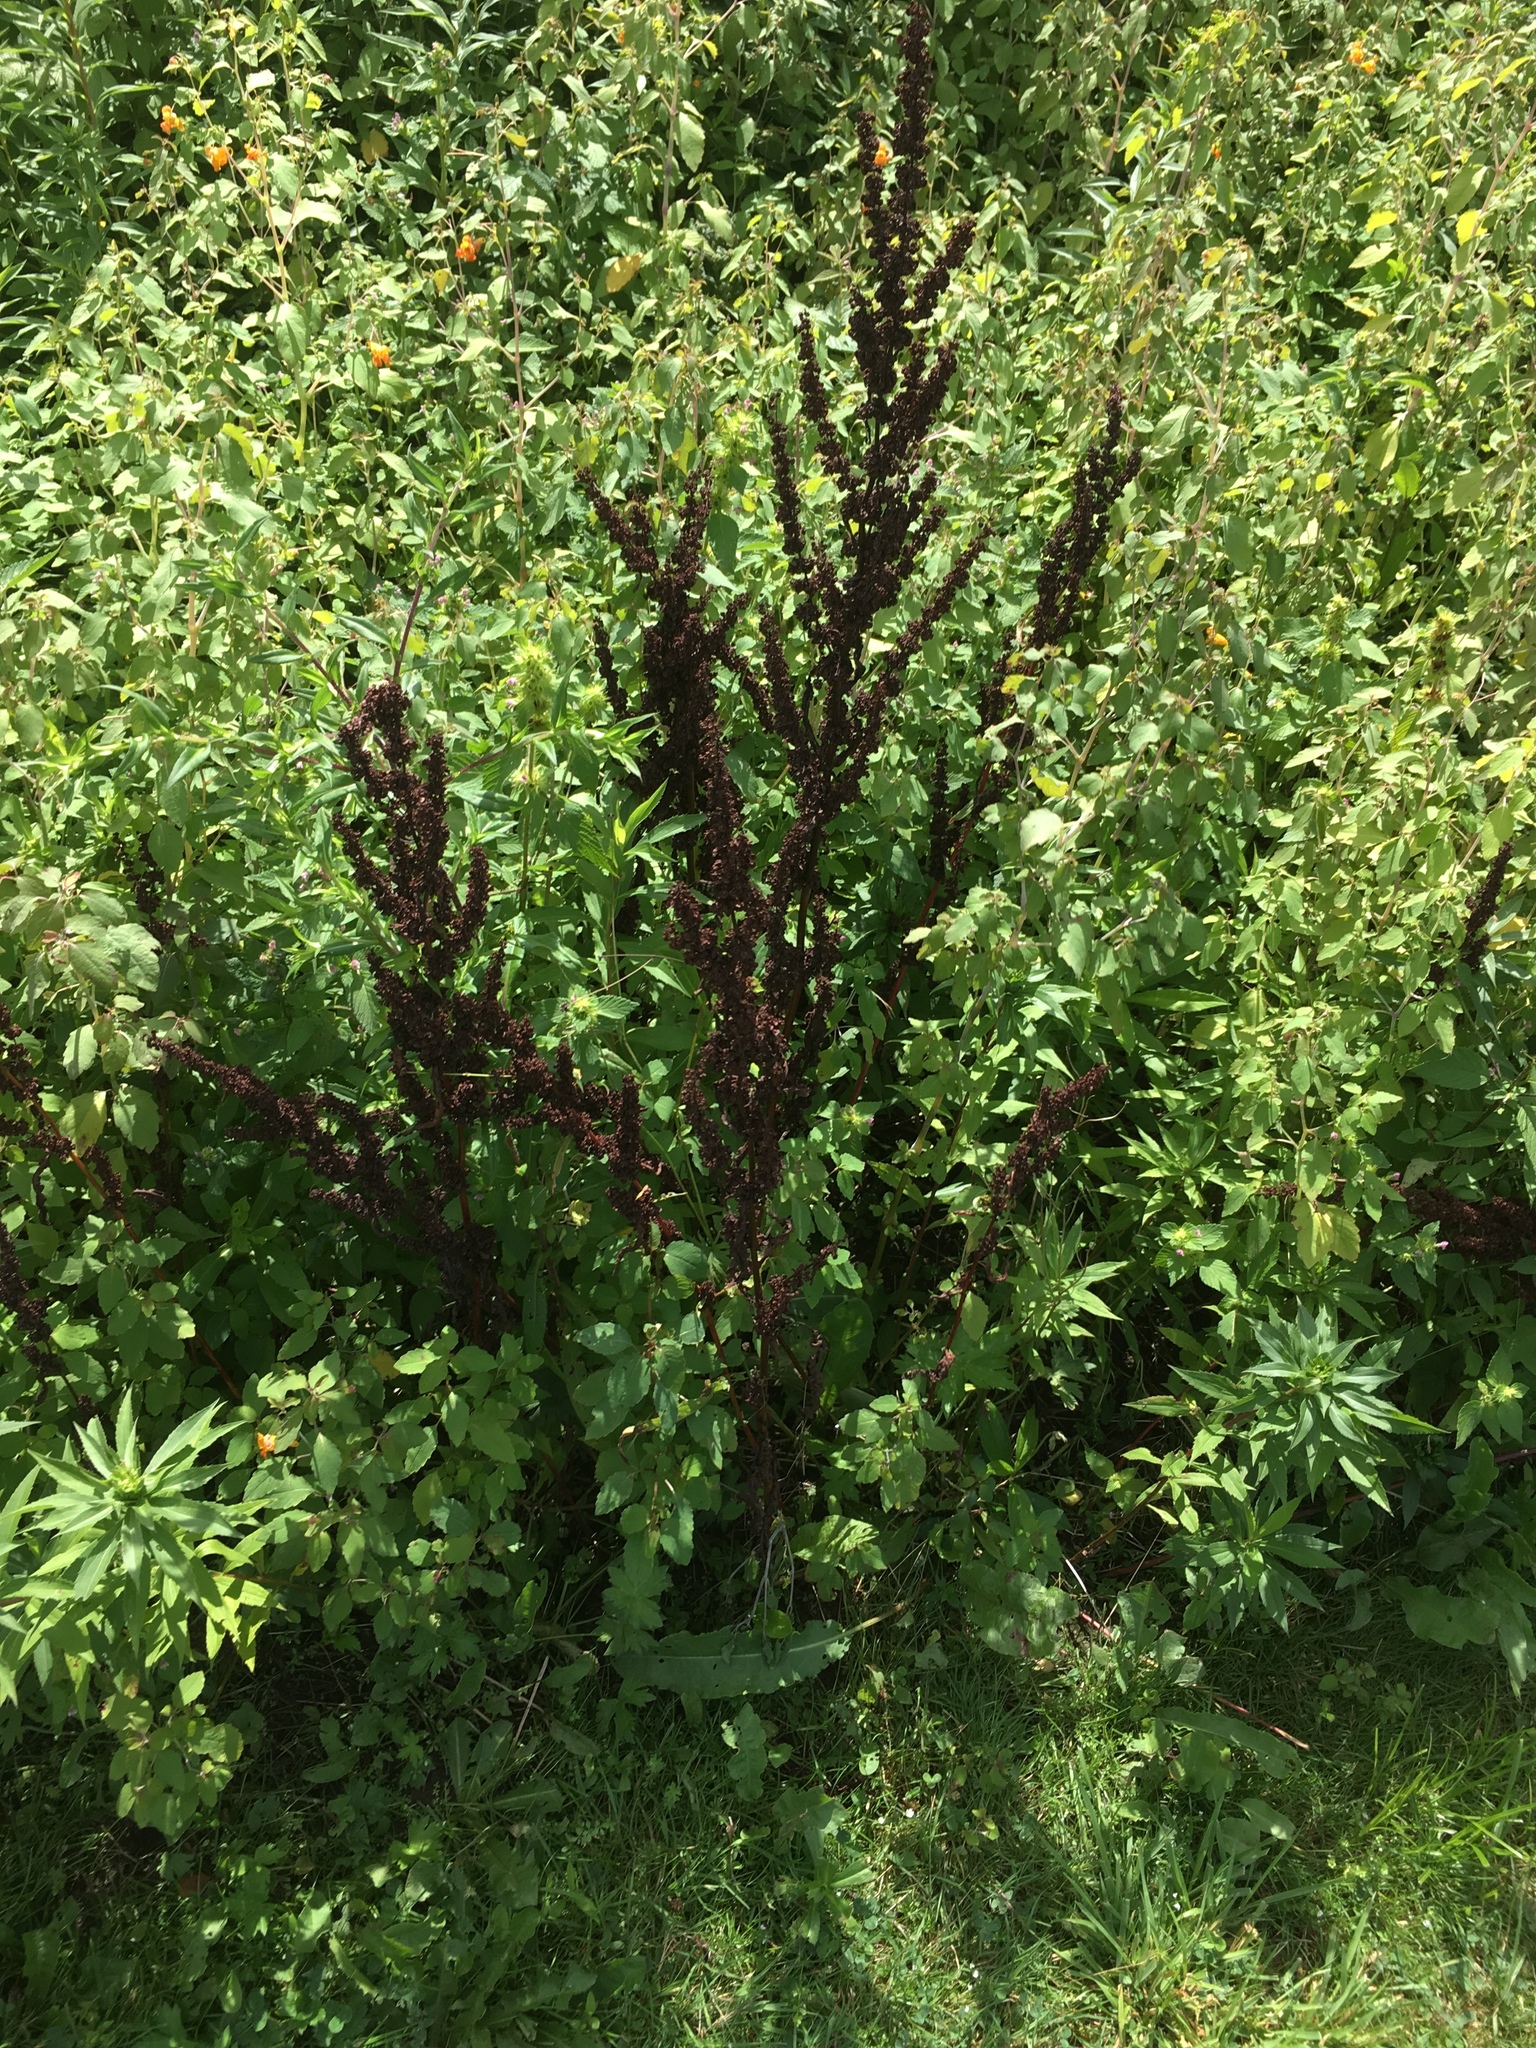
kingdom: Plantae
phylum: Tracheophyta
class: Magnoliopsida
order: Caryophyllales
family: Polygonaceae
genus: Rumex
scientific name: Rumex crispus
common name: Curled dock
